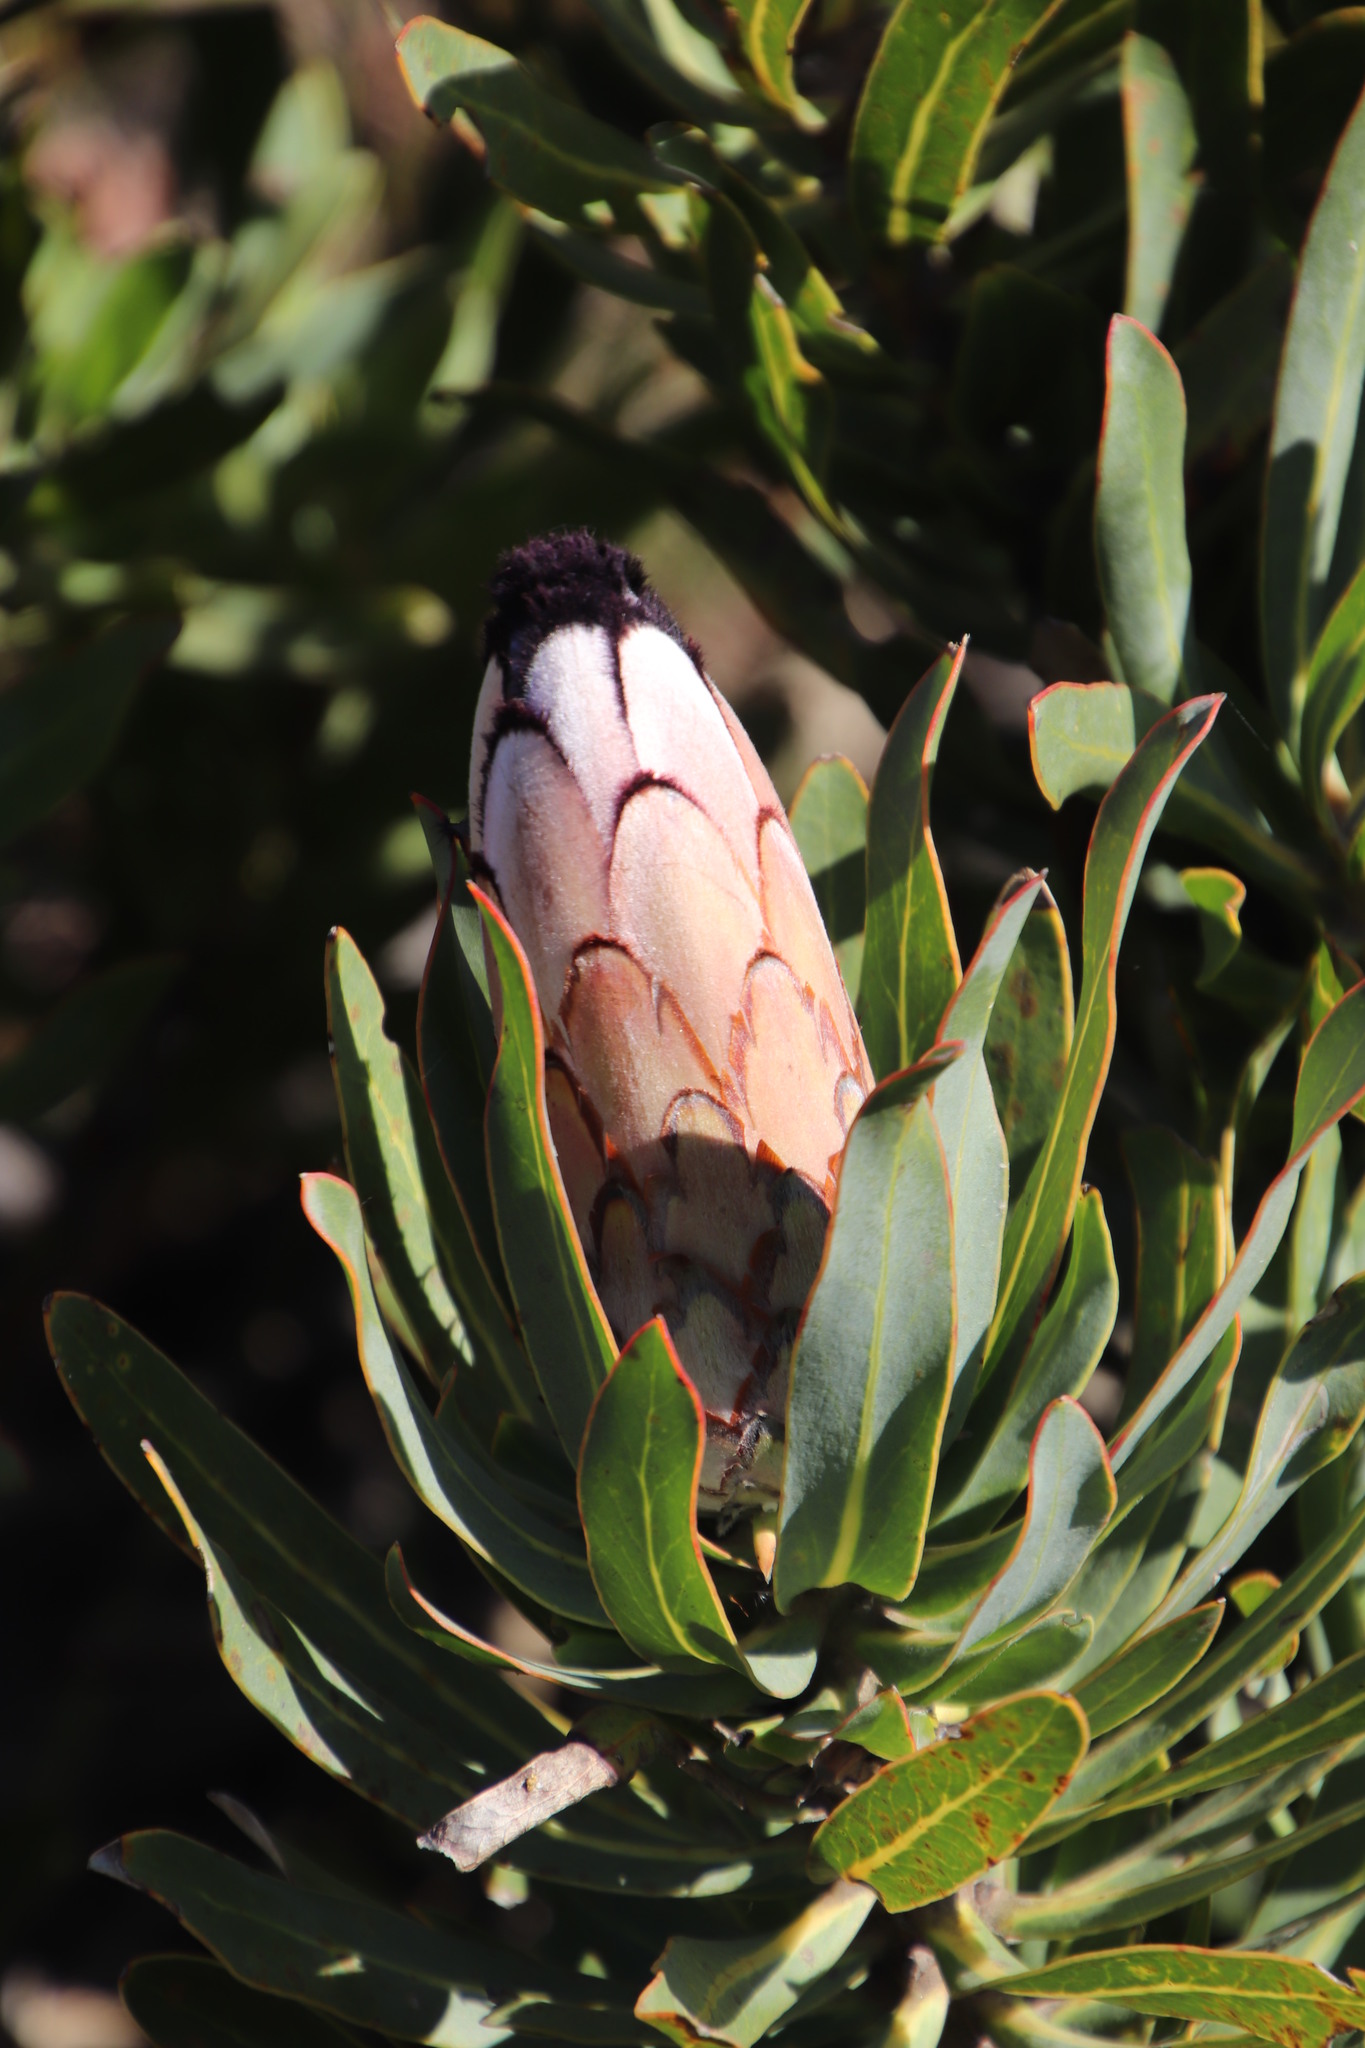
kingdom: Plantae
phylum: Tracheophyta
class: Magnoliopsida
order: Proteales
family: Proteaceae
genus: Protea
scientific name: Protea neriifolia
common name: Blue sugarbush
